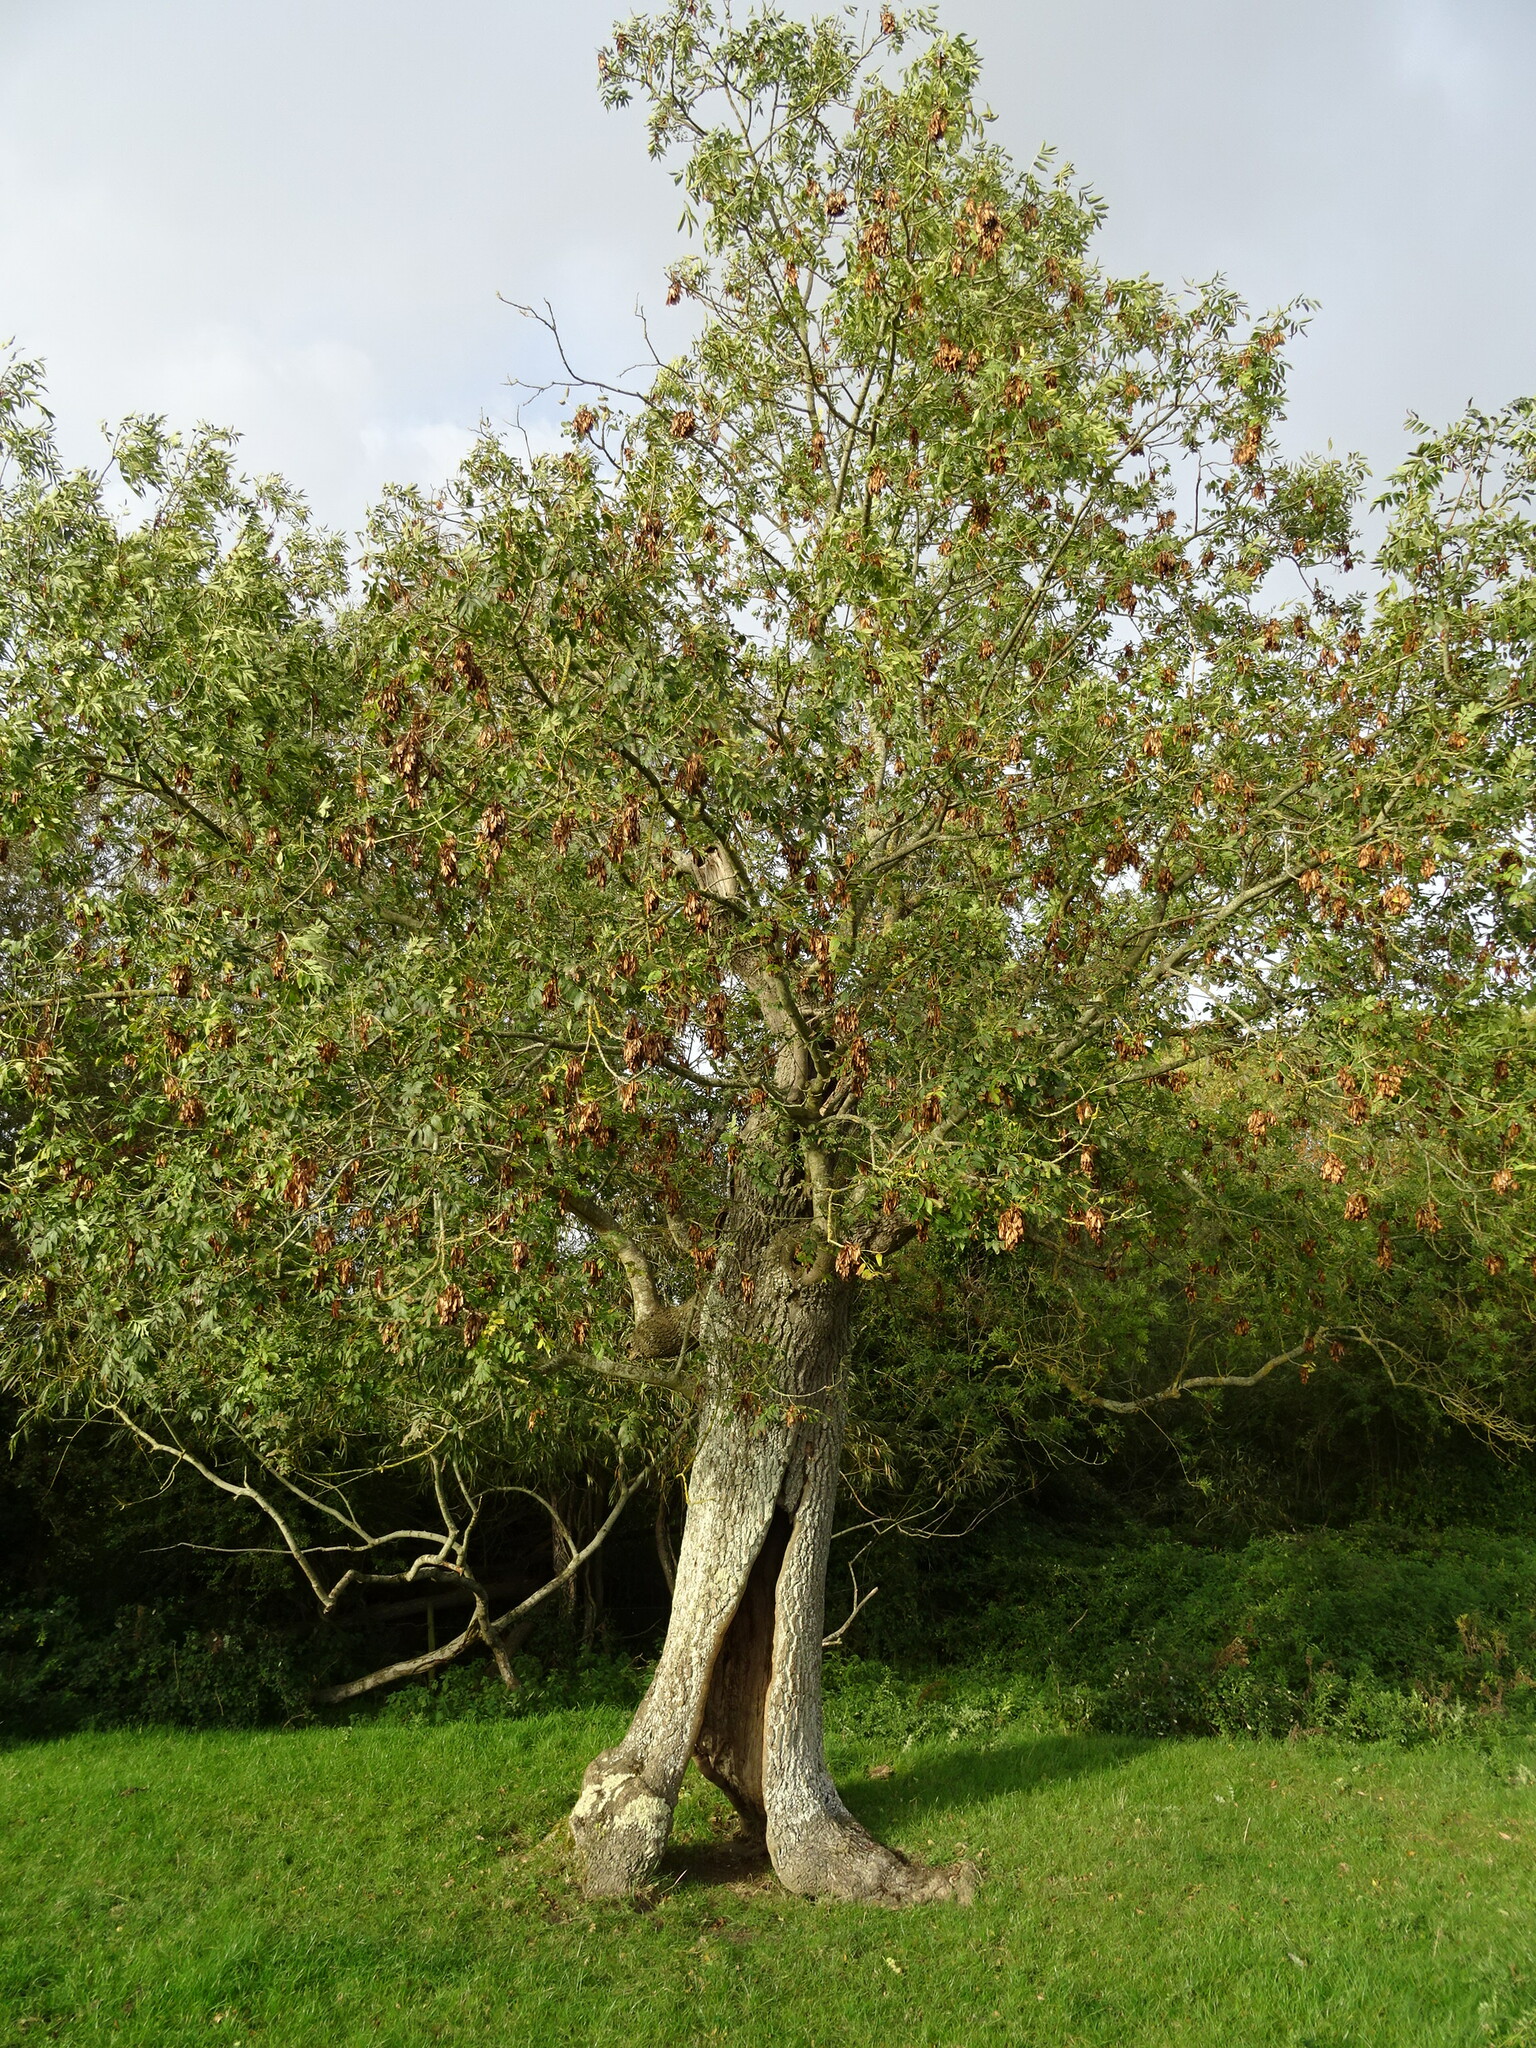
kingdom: Plantae
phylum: Tracheophyta
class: Magnoliopsida
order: Lamiales
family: Oleaceae
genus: Fraxinus
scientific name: Fraxinus excelsior
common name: European ash
